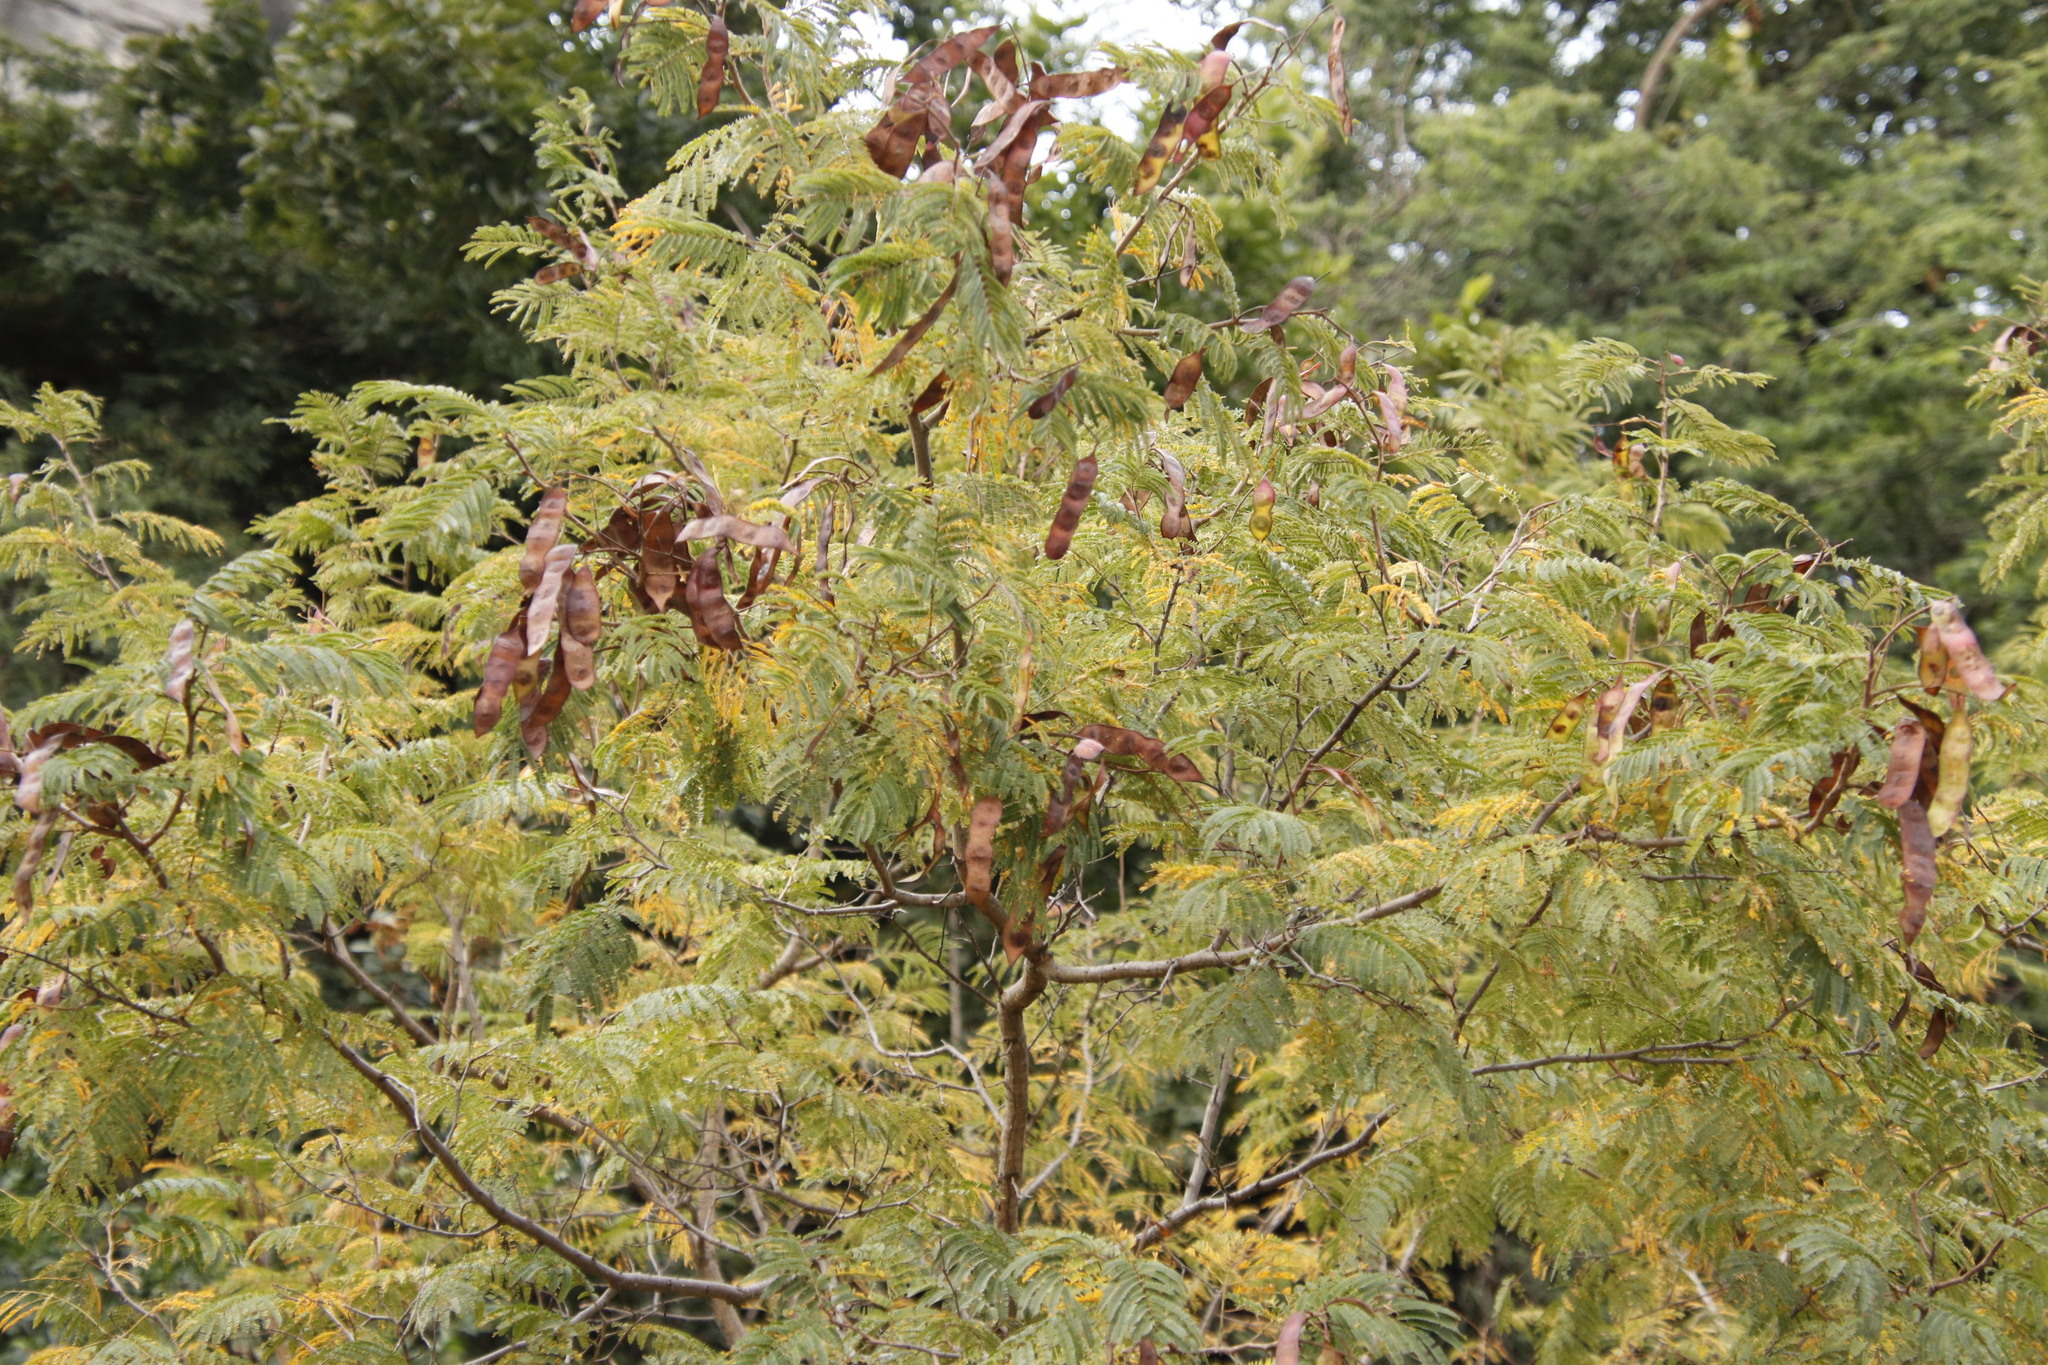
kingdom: Plantae
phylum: Tracheophyta
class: Magnoliopsida
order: Fabales
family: Fabaceae
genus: Albizia
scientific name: Albizia harveyi
